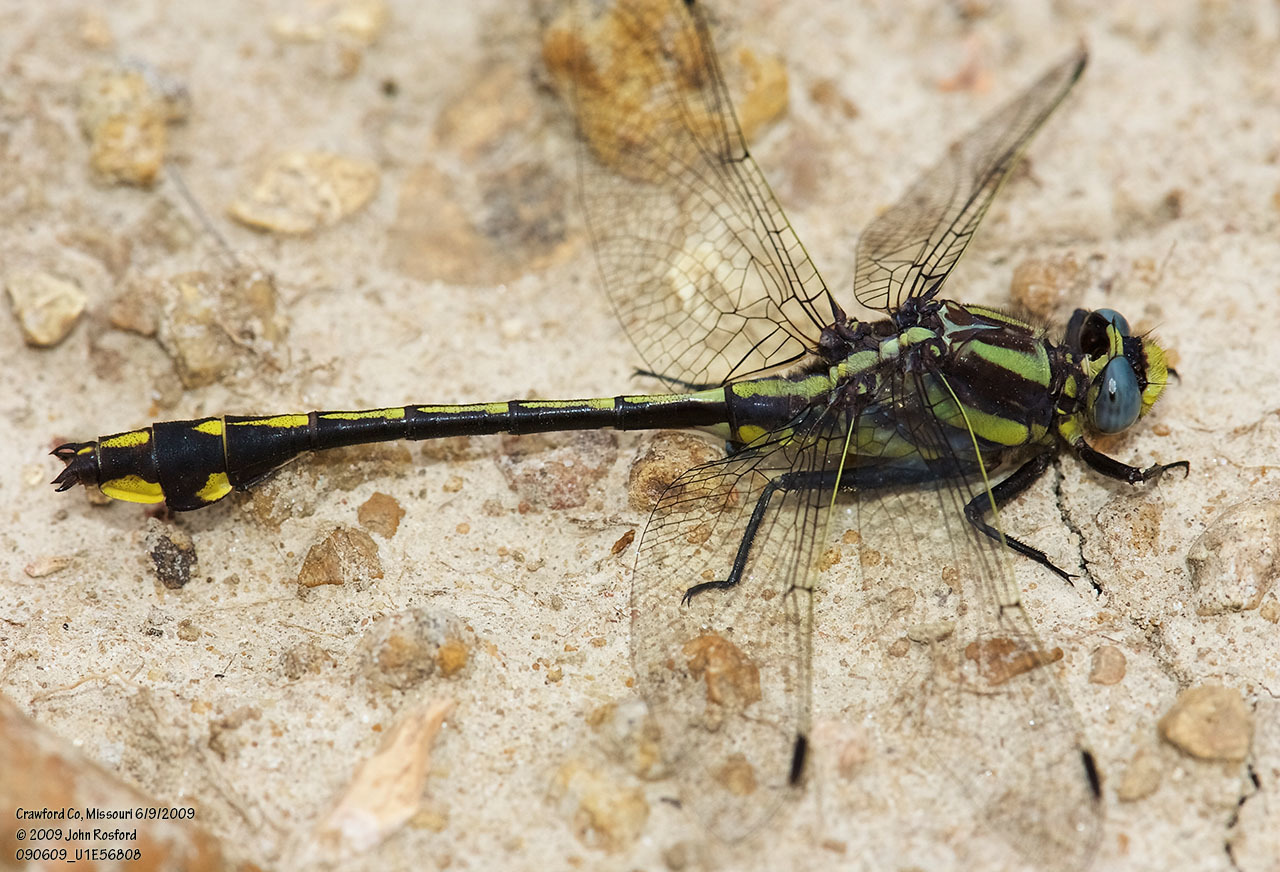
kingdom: Animalia
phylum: Arthropoda
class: Insecta
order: Odonata
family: Gomphidae
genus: Gomphurus
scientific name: Gomphurus ozarkensis
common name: Ozark clubtail
